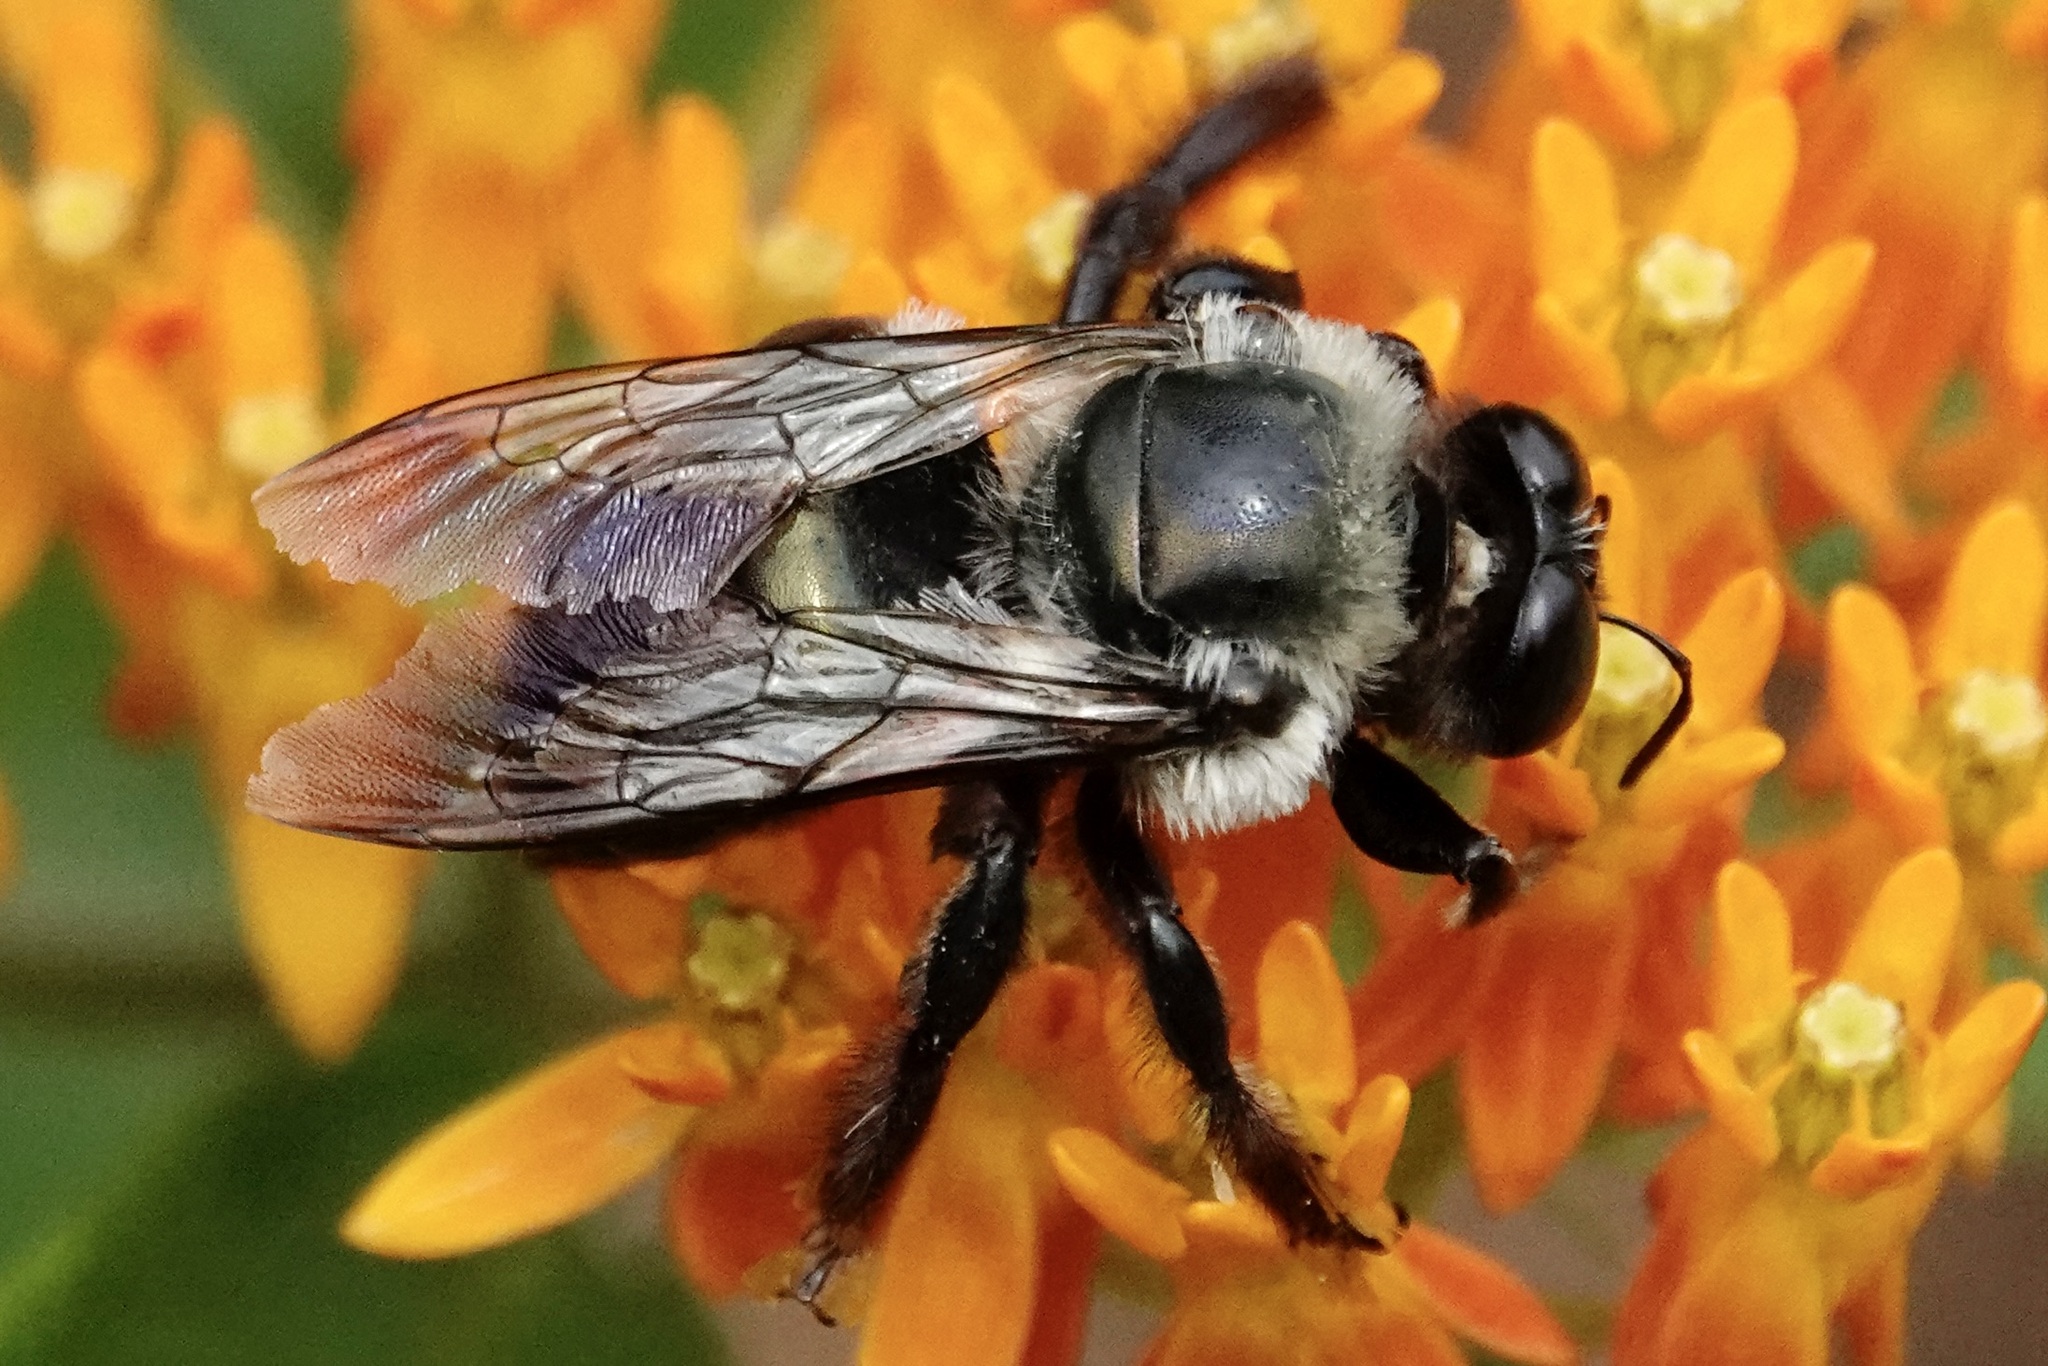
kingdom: Animalia
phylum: Arthropoda
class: Insecta
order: Hymenoptera
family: Apidae
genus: Xylocopa
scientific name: Xylocopa virginica
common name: Carpenter bee
